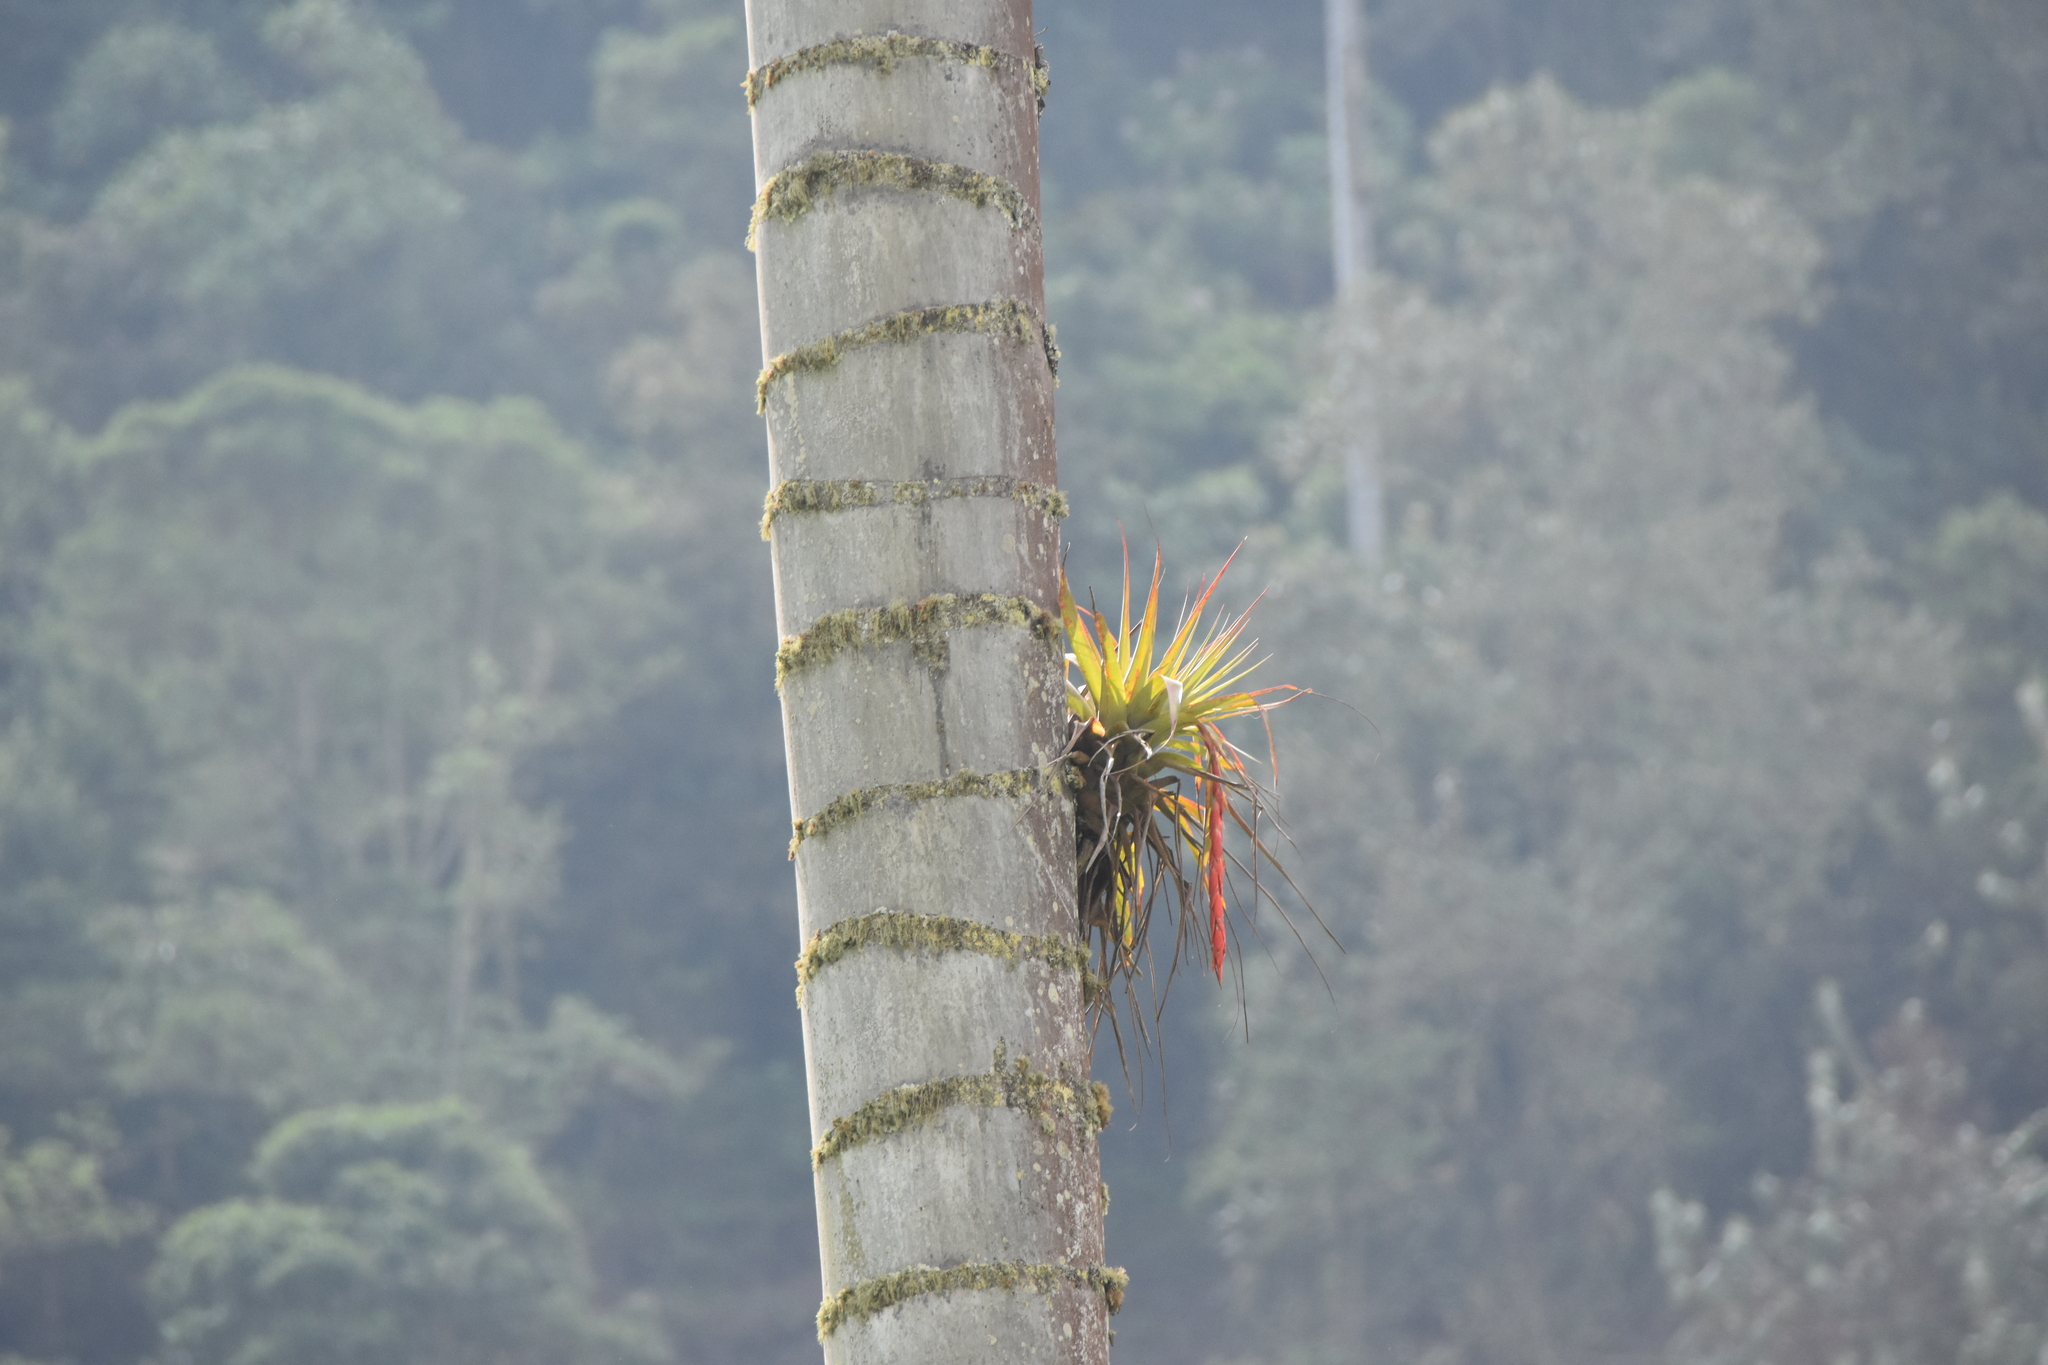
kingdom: Plantae
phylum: Tracheophyta
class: Liliopsida
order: Poales
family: Bromeliaceae
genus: Vriesea
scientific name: Vriesea tequendamae
